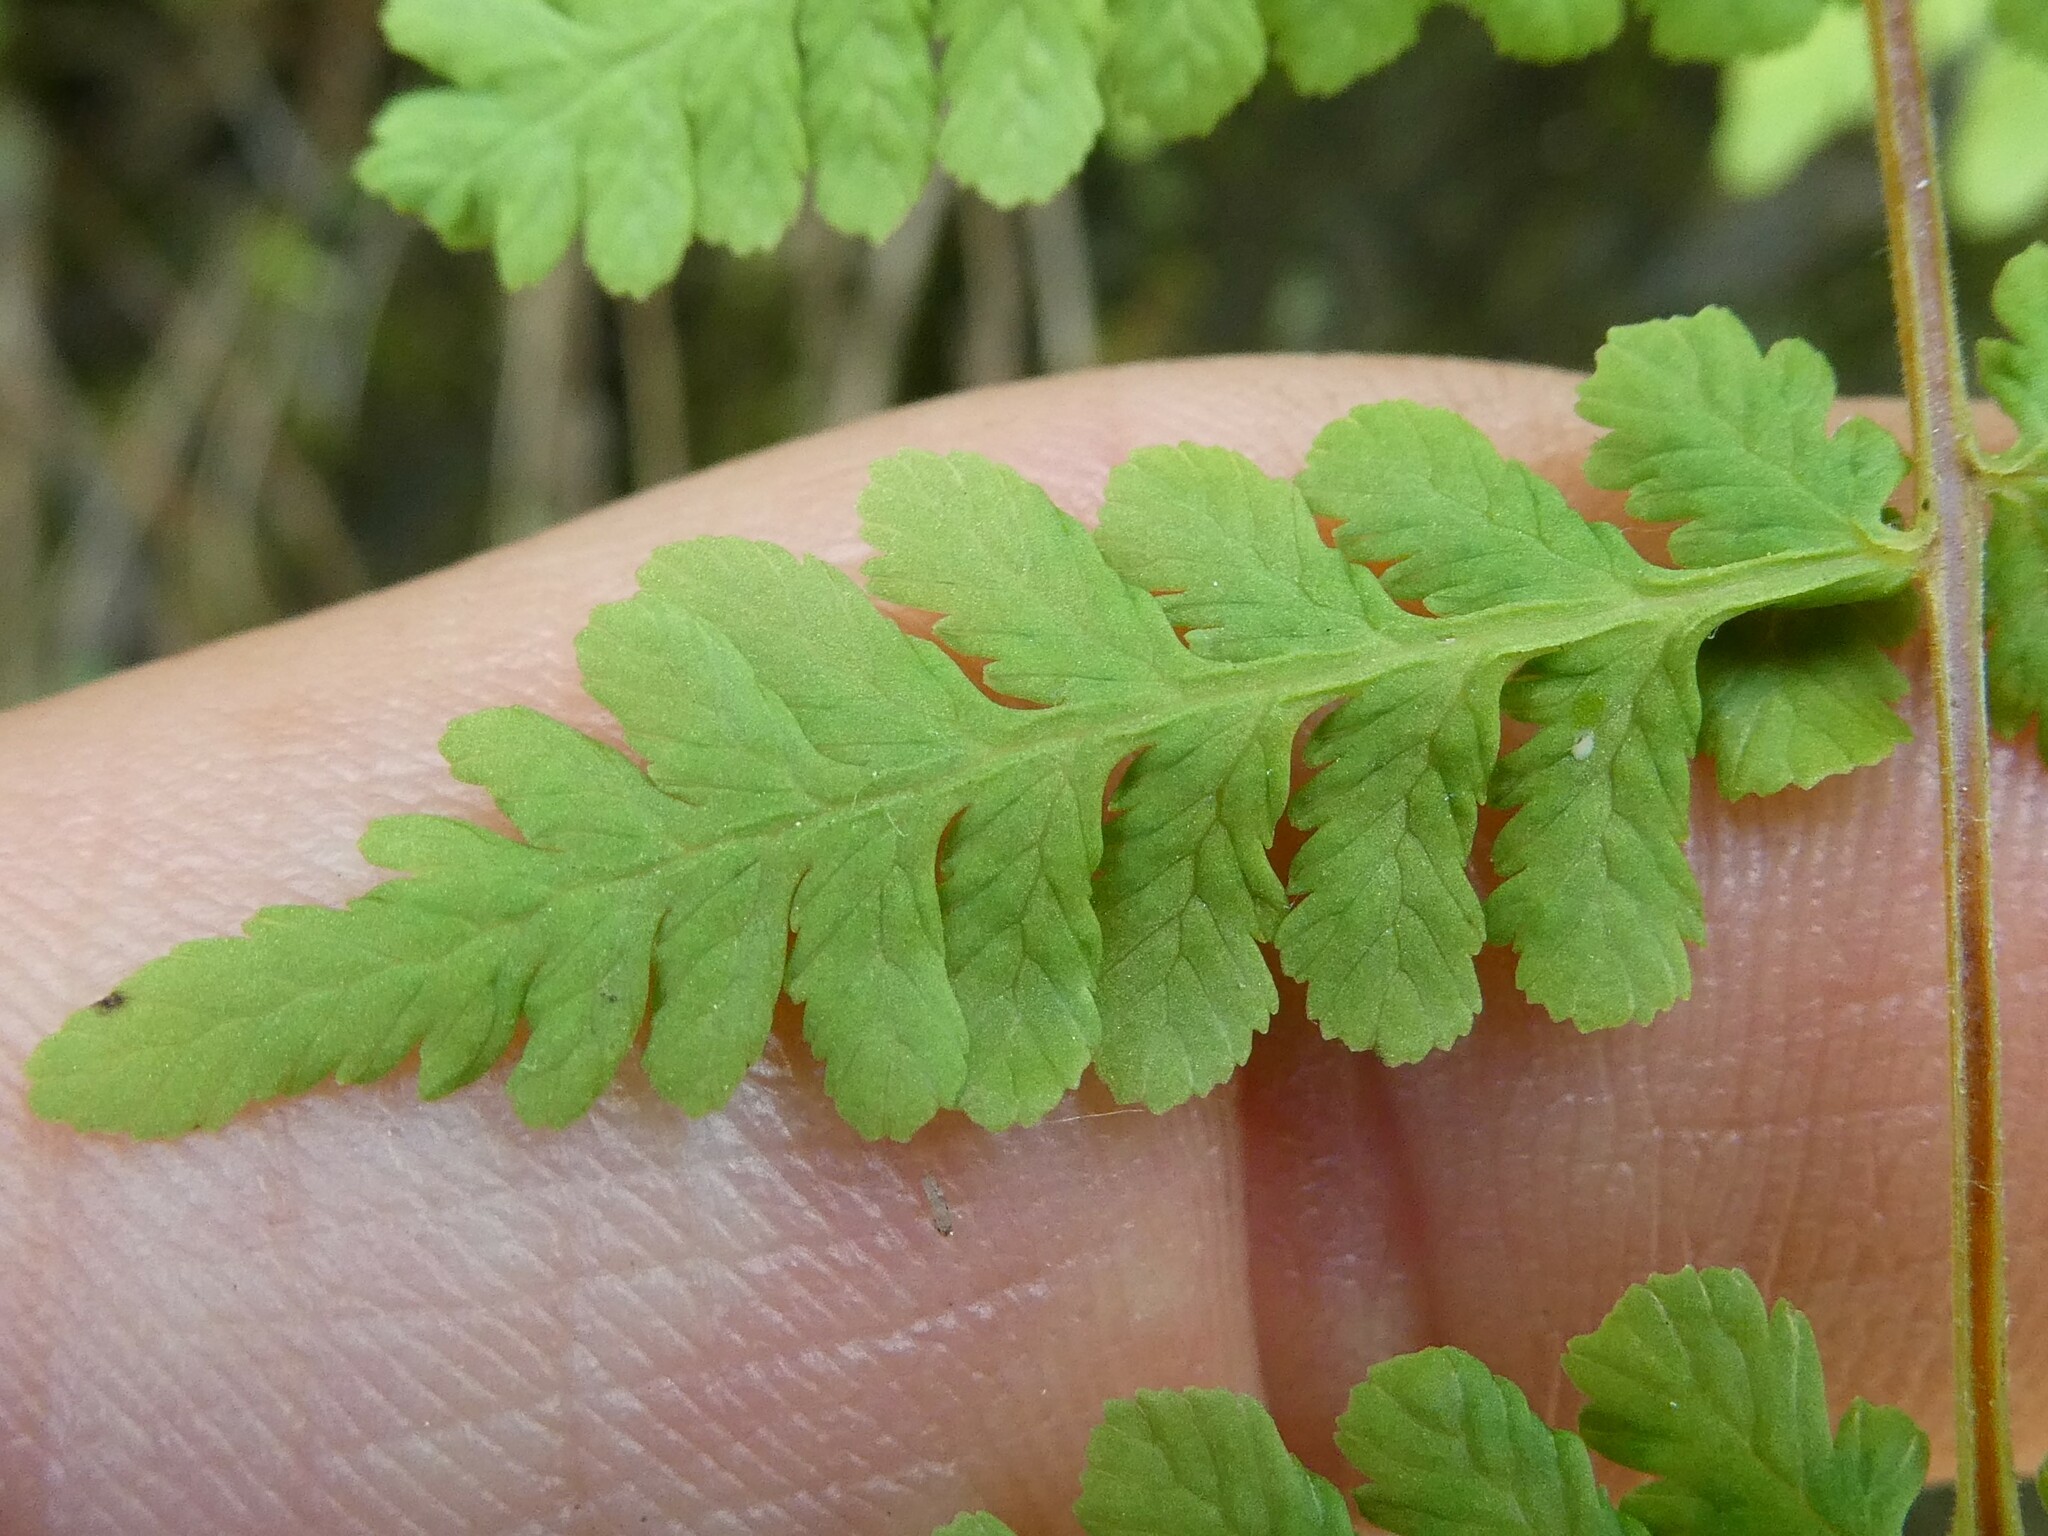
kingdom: Plantae
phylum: Tracheophyta
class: Polypodiopsida
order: Polypodiales
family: Cystopteridaceae
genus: Cystopteris
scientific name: Cystopteris bulbifera
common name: Bulblet bladder fern
